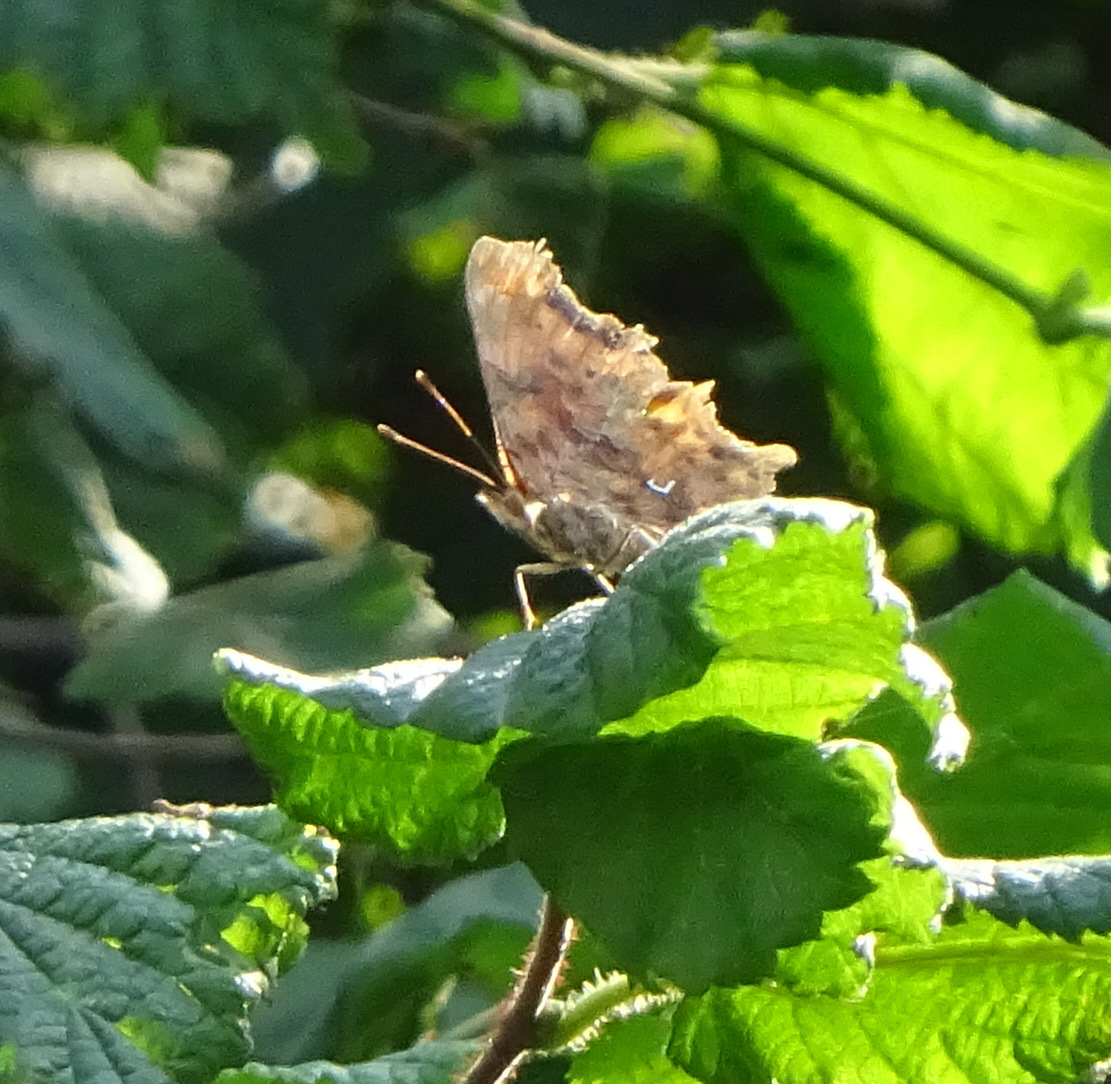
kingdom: Animalia
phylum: Arthropoda
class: Insecta
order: Lepidoptera
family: Nymphalidae
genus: Polygonia
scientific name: Polygonia c-album
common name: Comma
